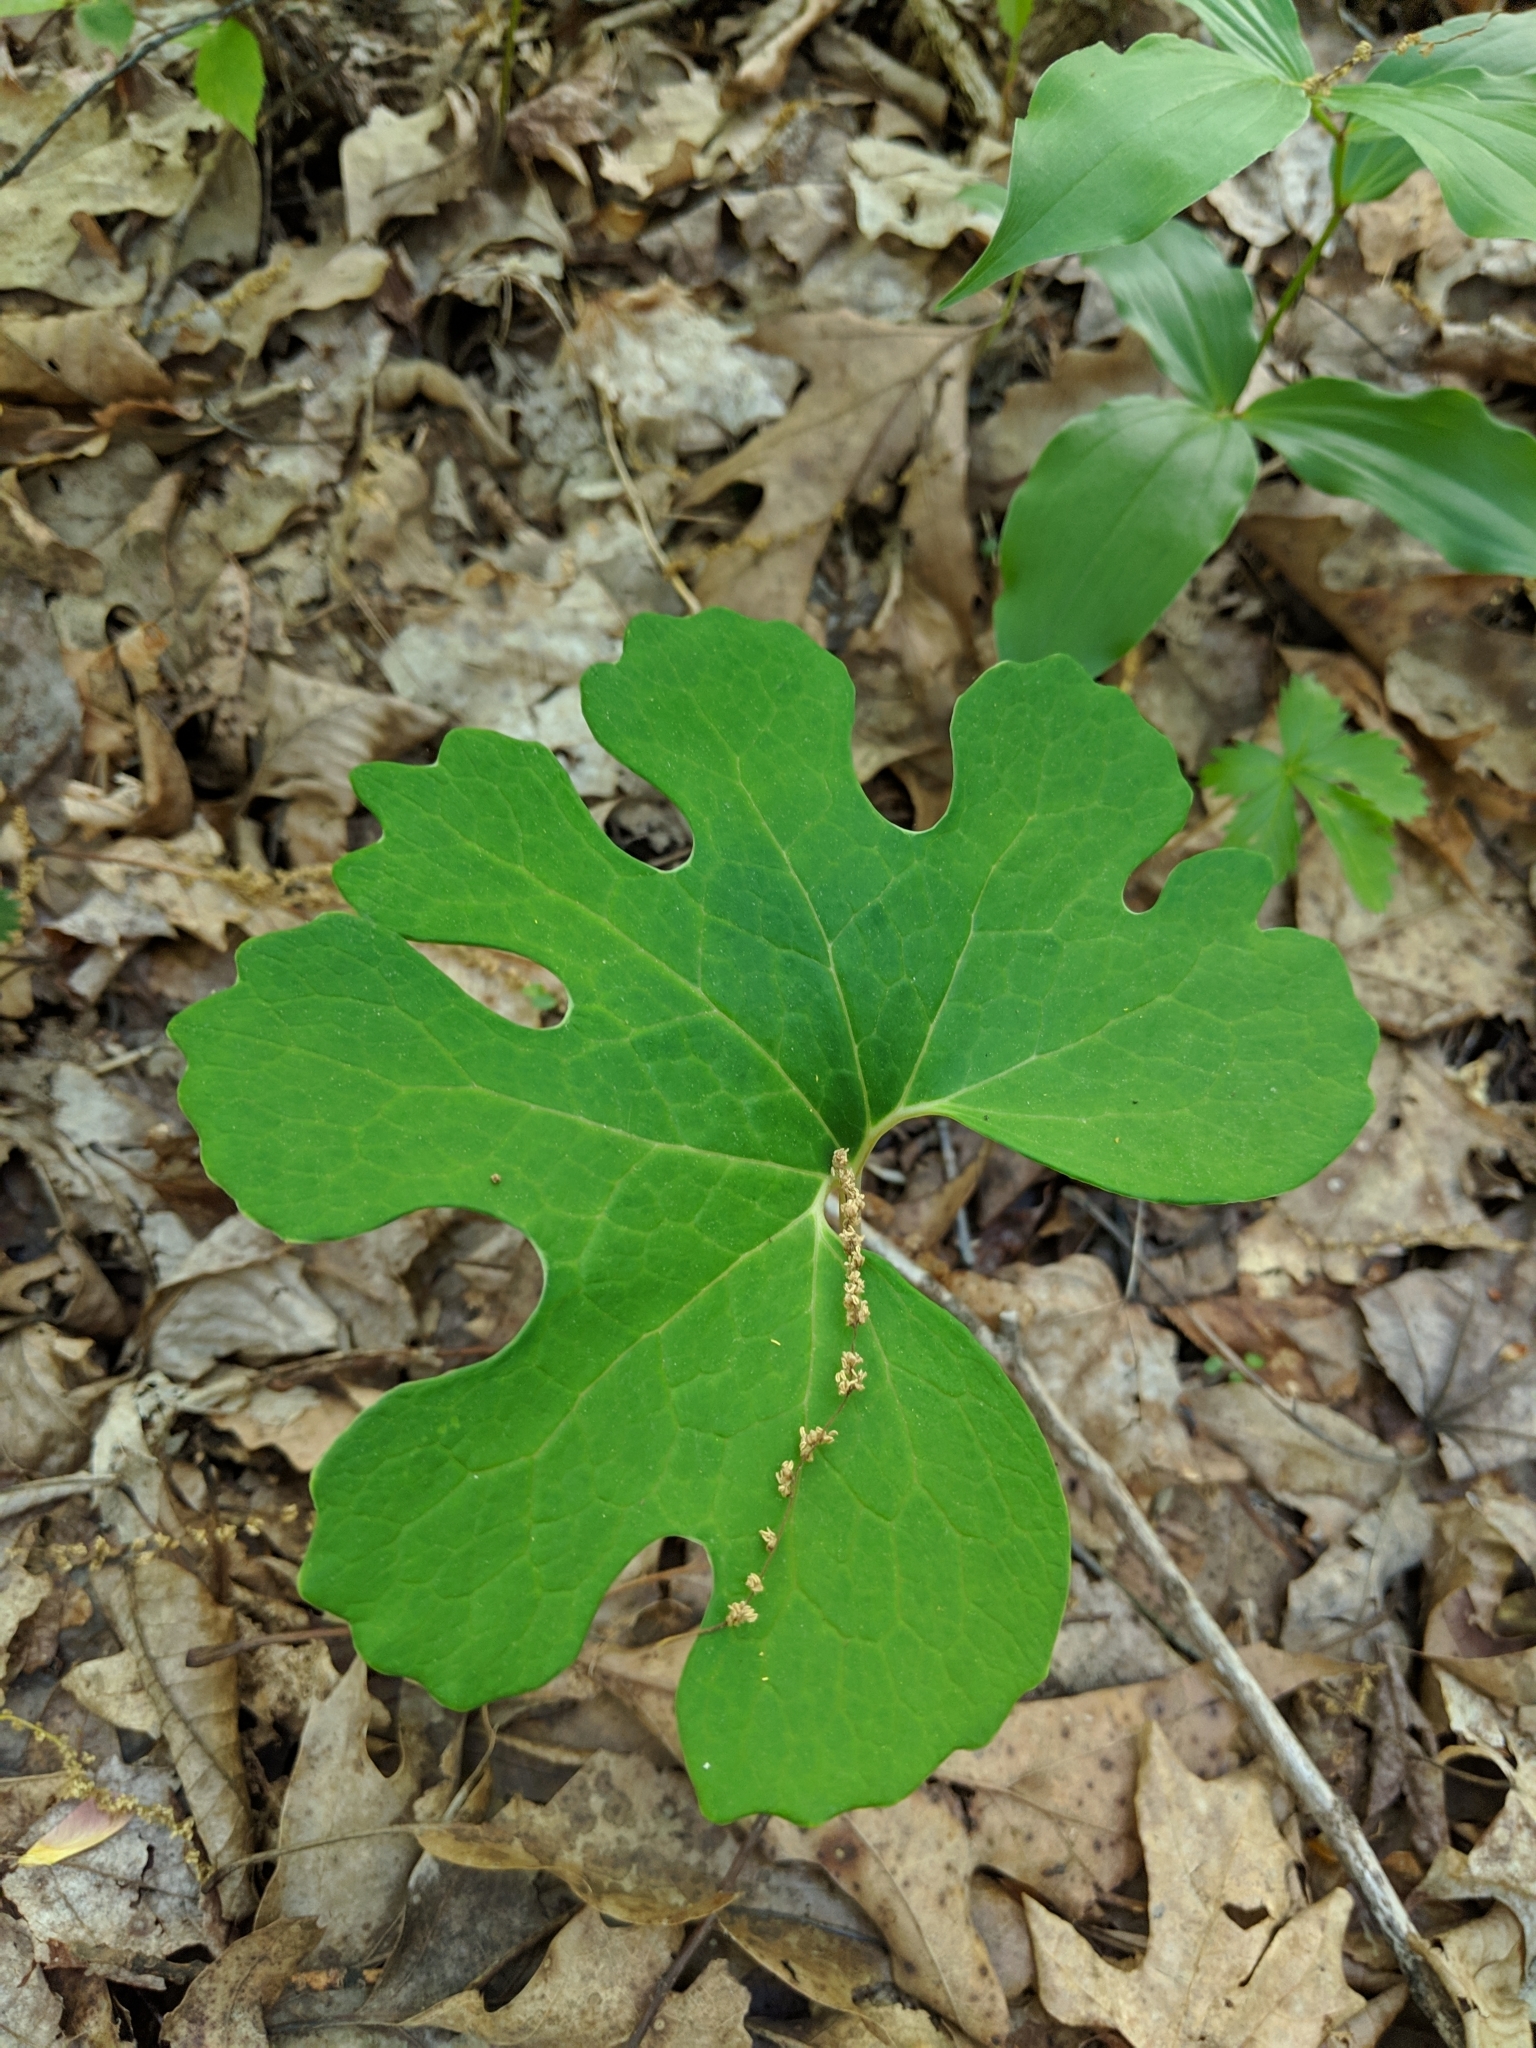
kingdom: Plantae
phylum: Tracheophyta
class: Magnoliopsida
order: Ranunculales
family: Papaveraceae
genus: Sanguinaria
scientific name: Sanguinaria canadensis
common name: Bloodroot
